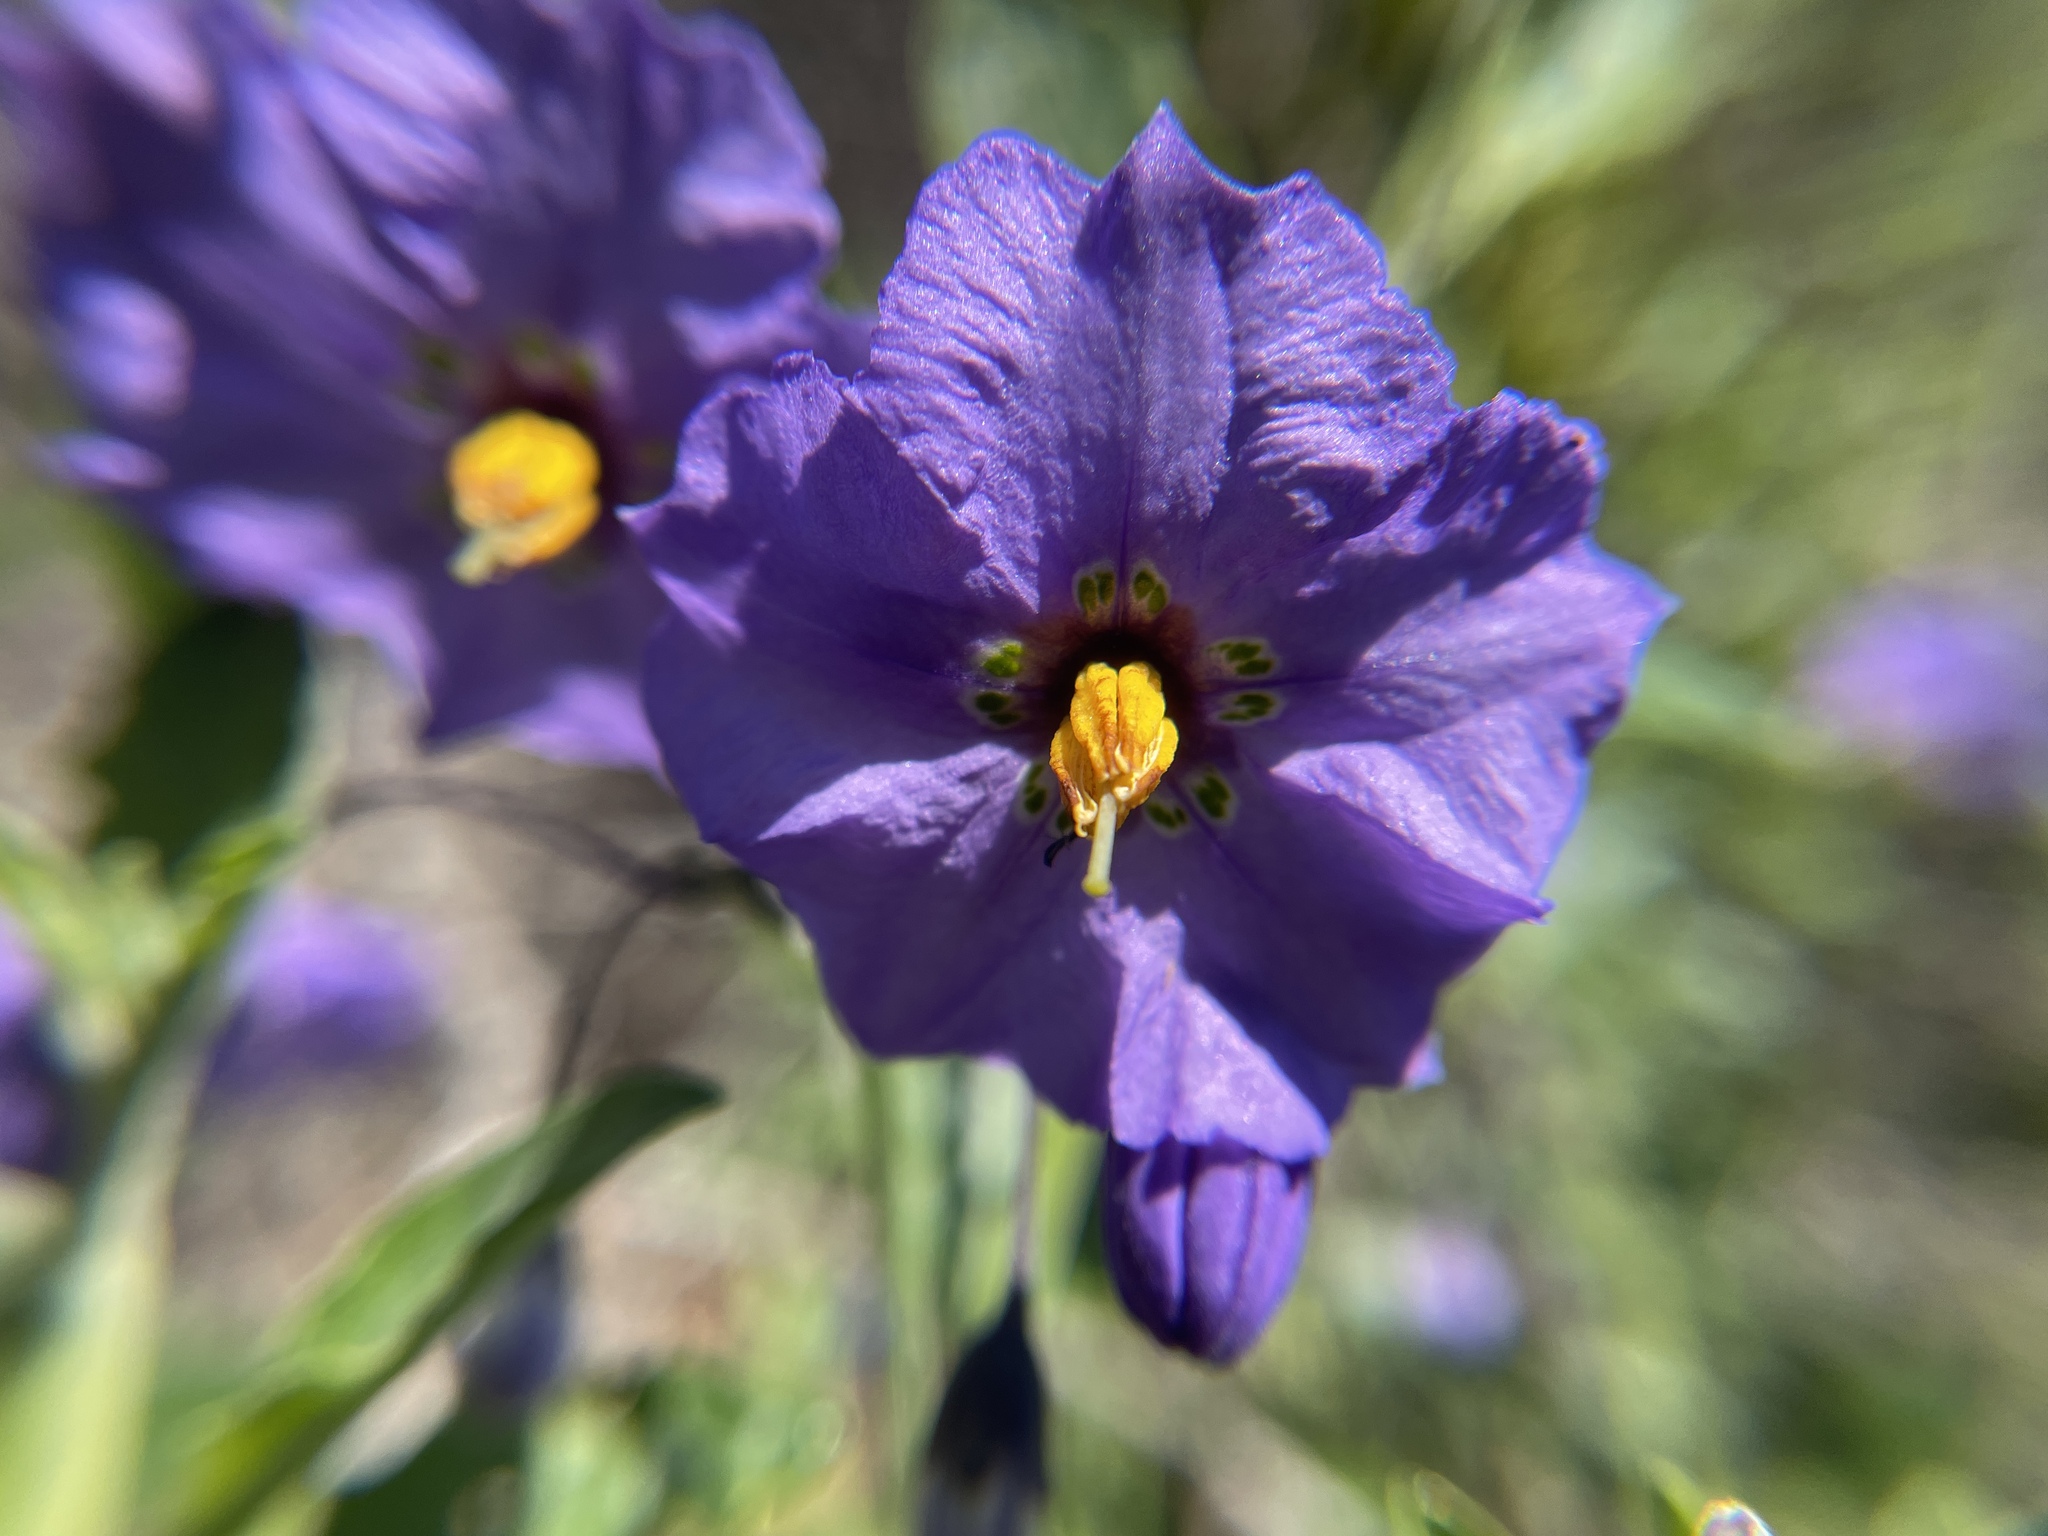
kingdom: Plantae
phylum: Tracheophyta
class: Magnoliopsida
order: Solanales
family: Solanaceae
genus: Solanum
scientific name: Solanum umbelliferum
